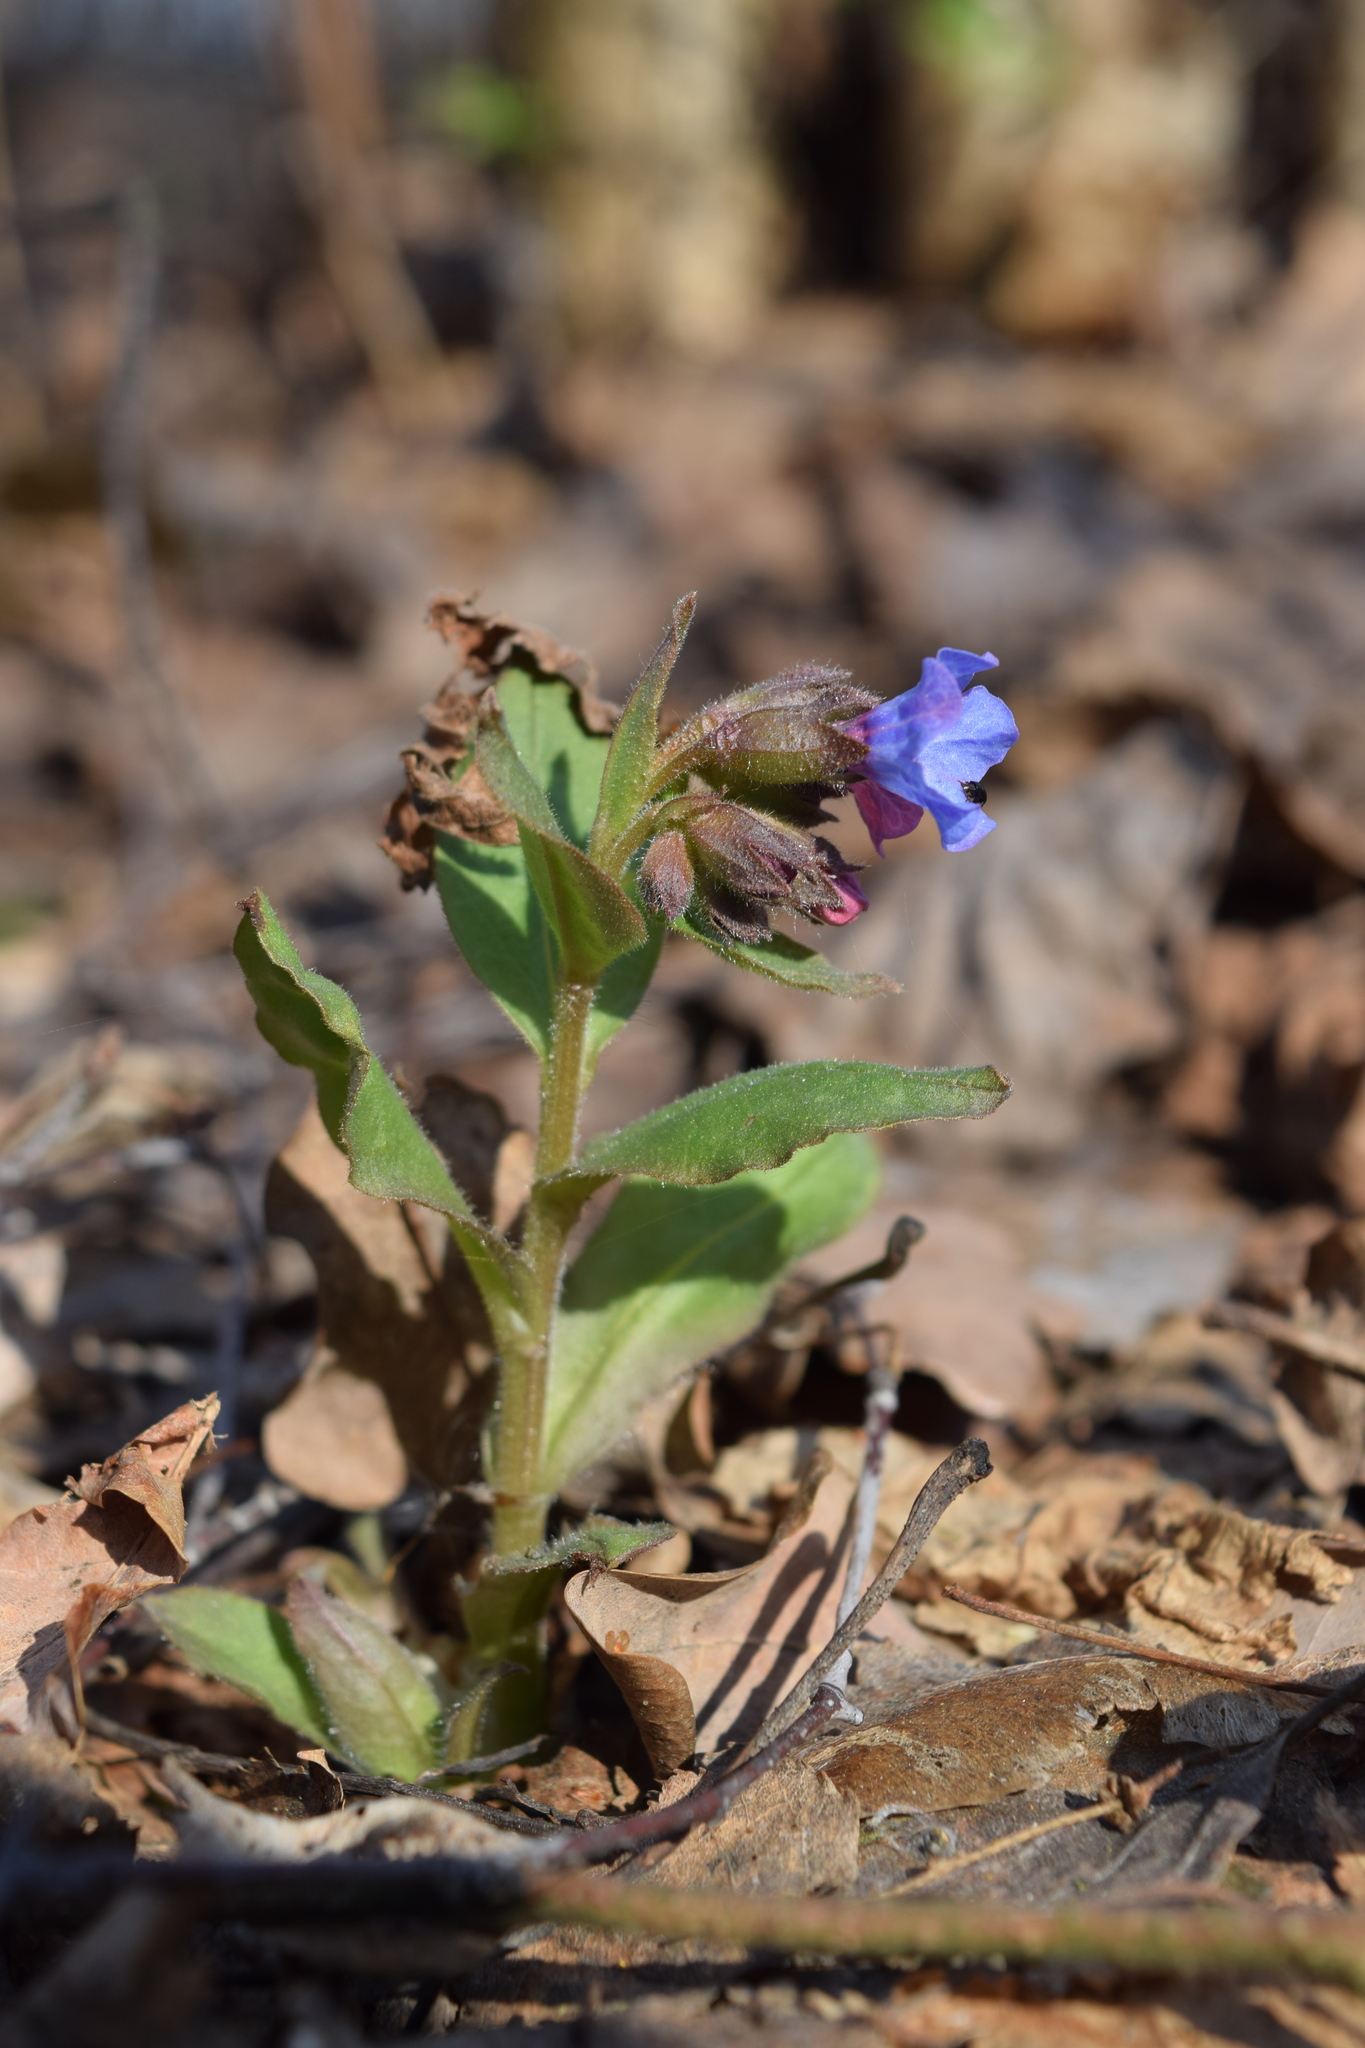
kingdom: Plantae
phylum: Tracheophyta
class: Magnoliopsida
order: Boraginales
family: Boraginaceae
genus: Pulmonaria
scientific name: Pulmonaria obscura
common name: Suffolk lungwort
